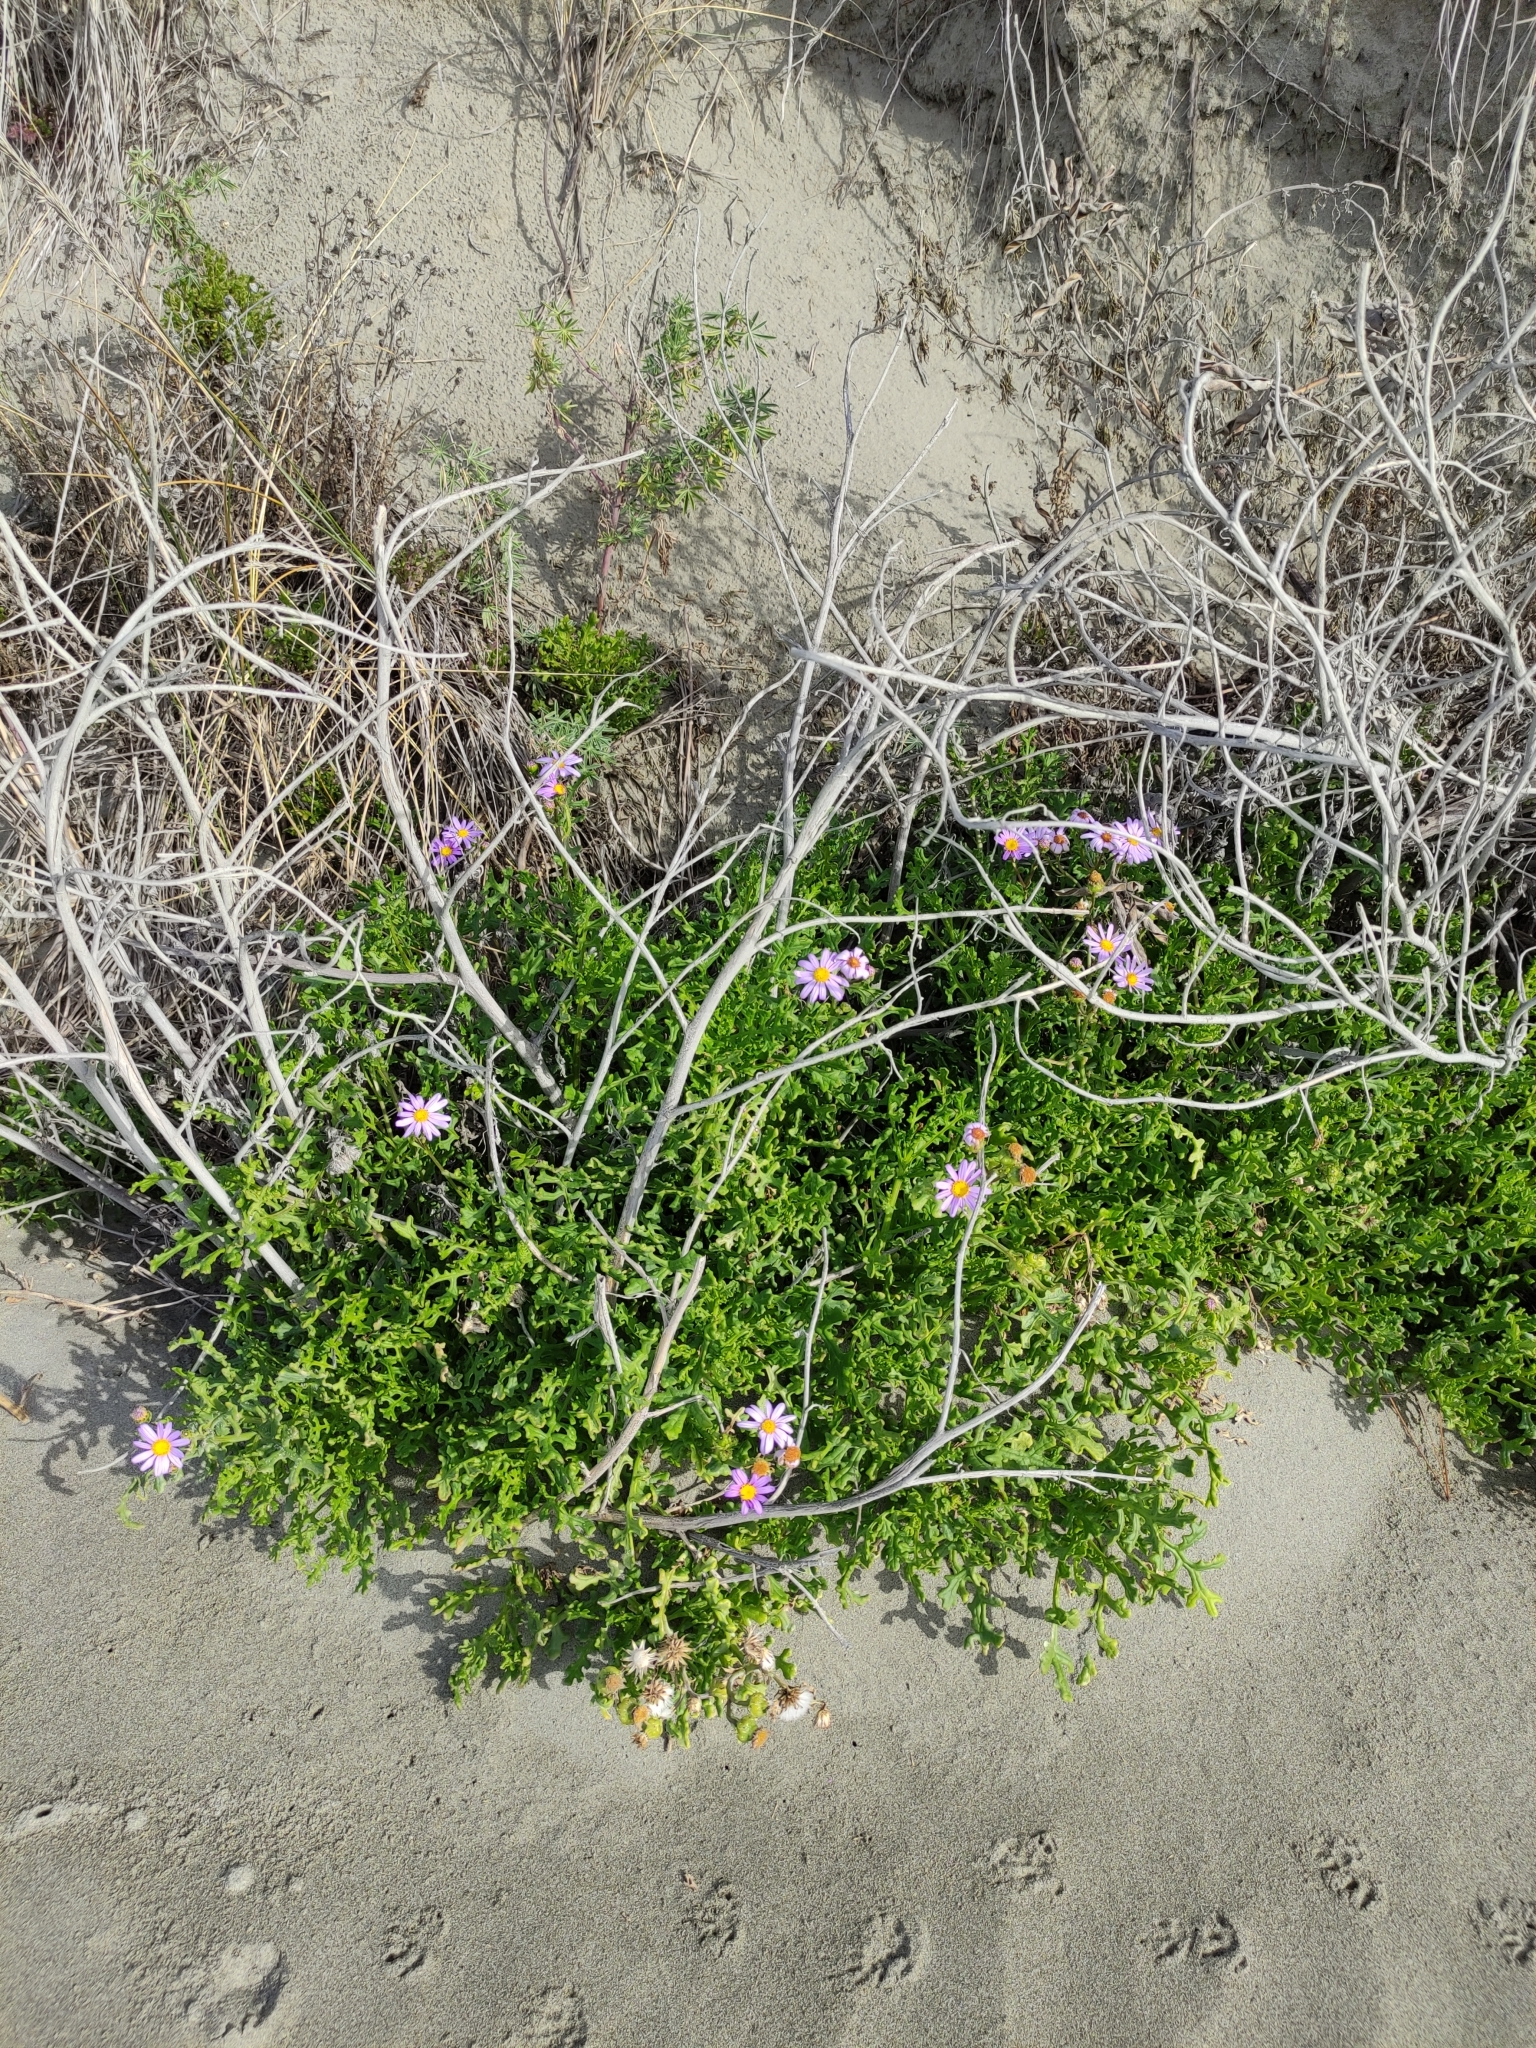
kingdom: Plantae
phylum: Tracheophyta
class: Magnoliopsida
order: Asterales
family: Asteraceae
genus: Senecio
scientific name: Senecio elegans
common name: Purple groundsel
